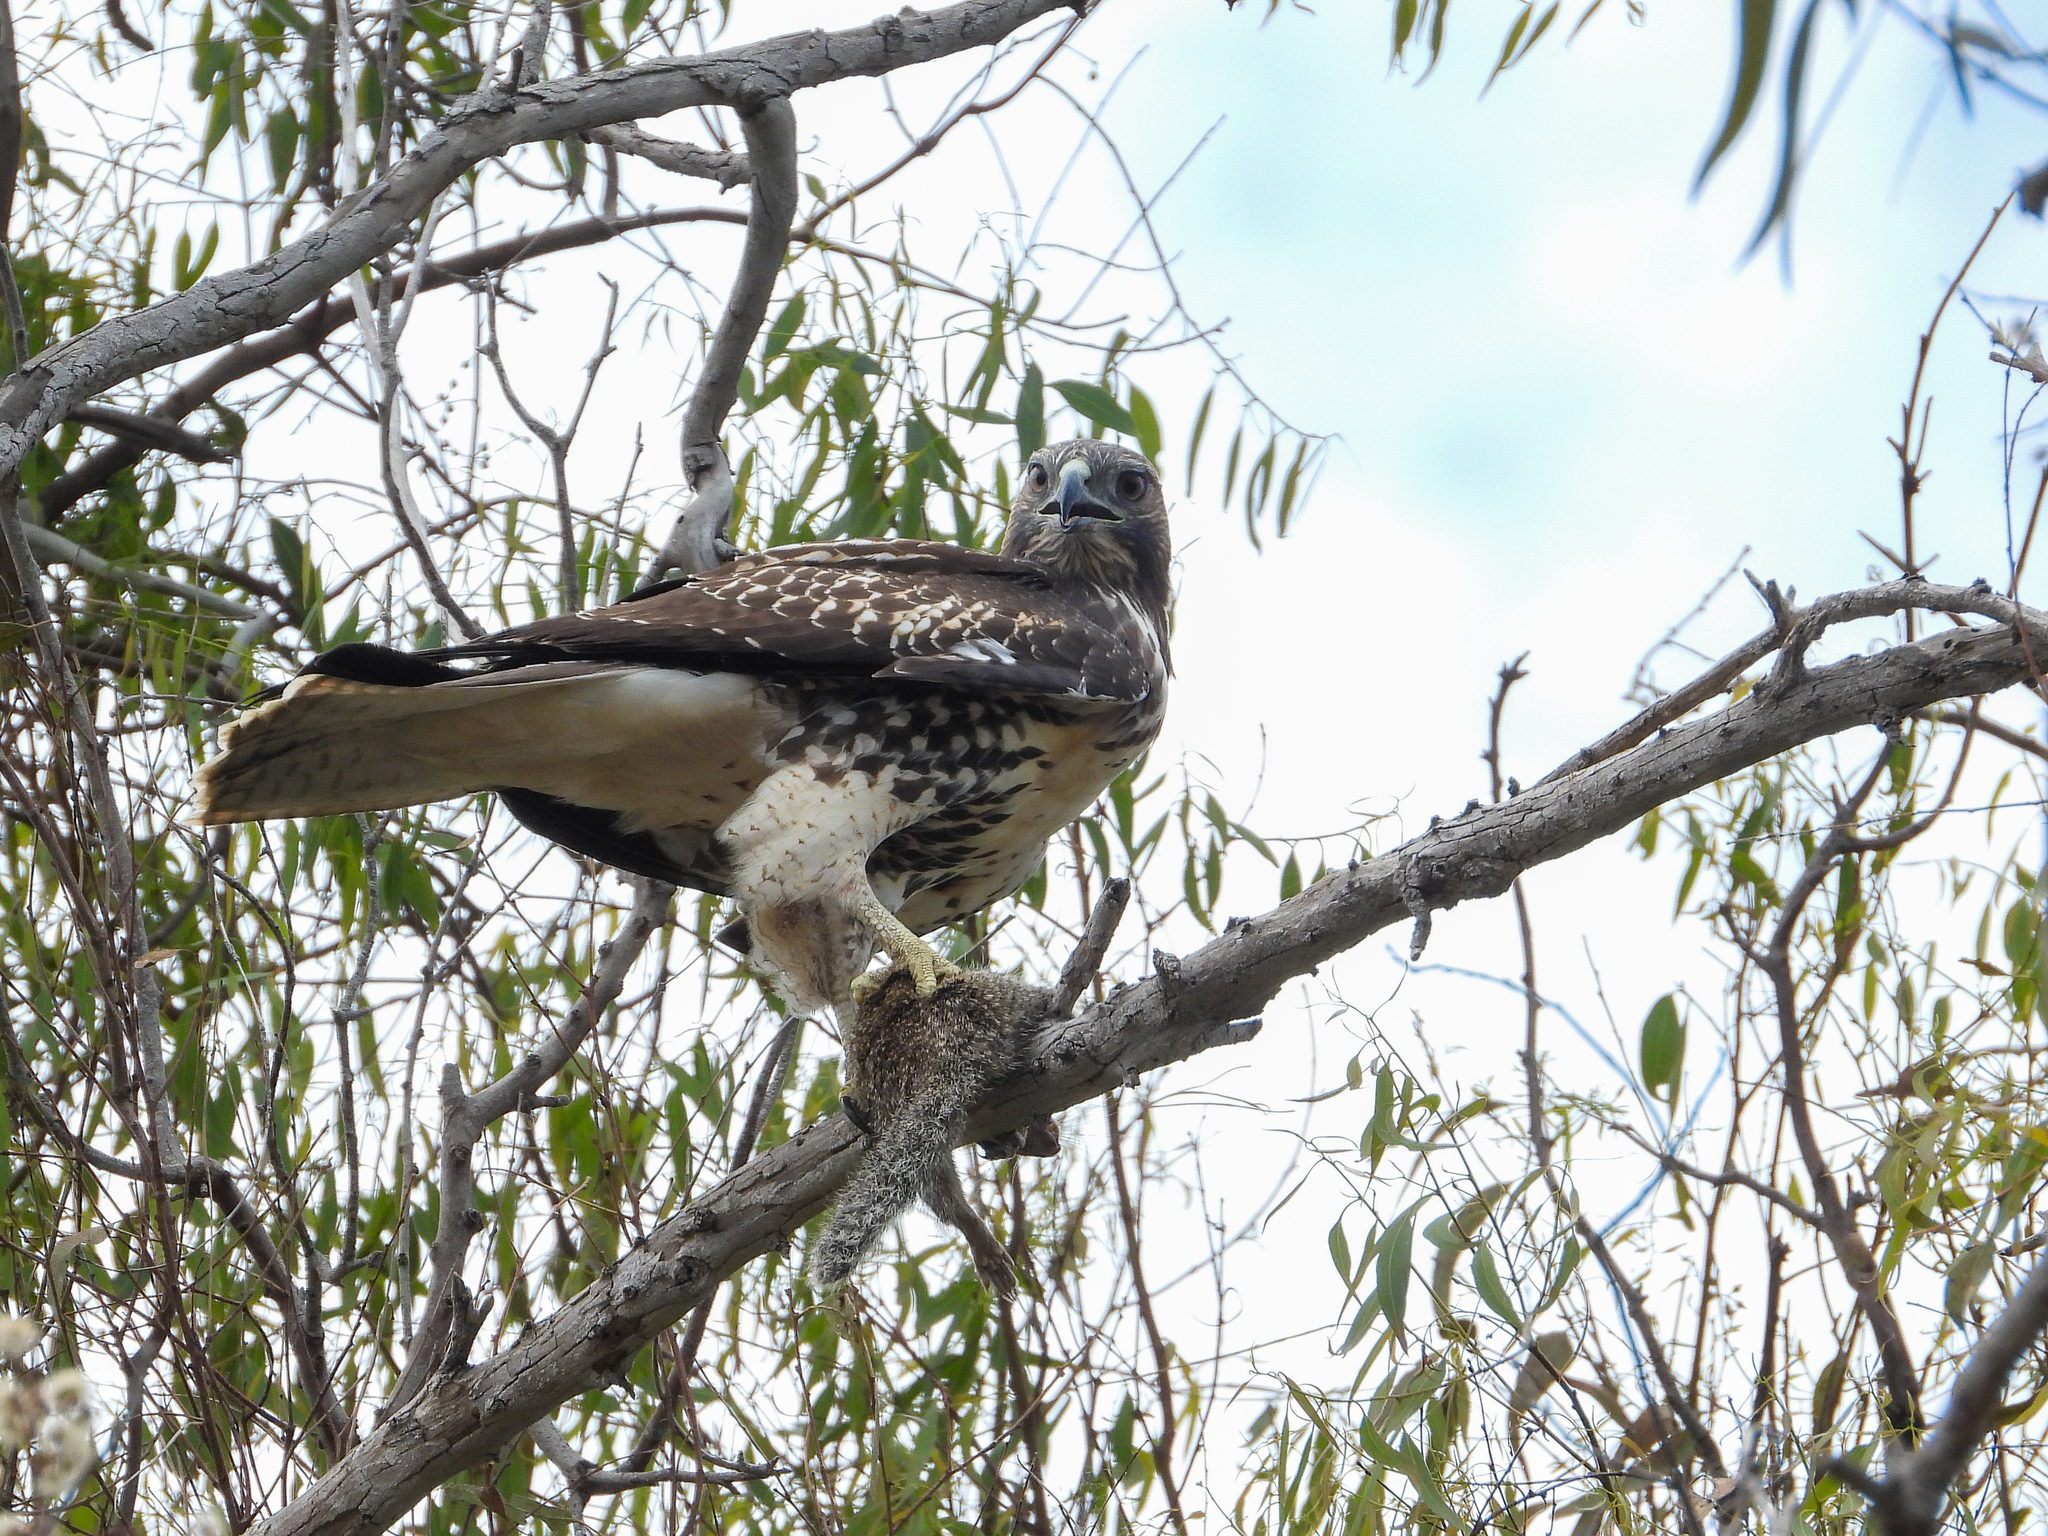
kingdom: Animalia
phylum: Chordata
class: Aves
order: Accipitriformes
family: Accipitridae
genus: Buteo
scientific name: Buteo jamaicensis
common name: Red-tailed hawk
